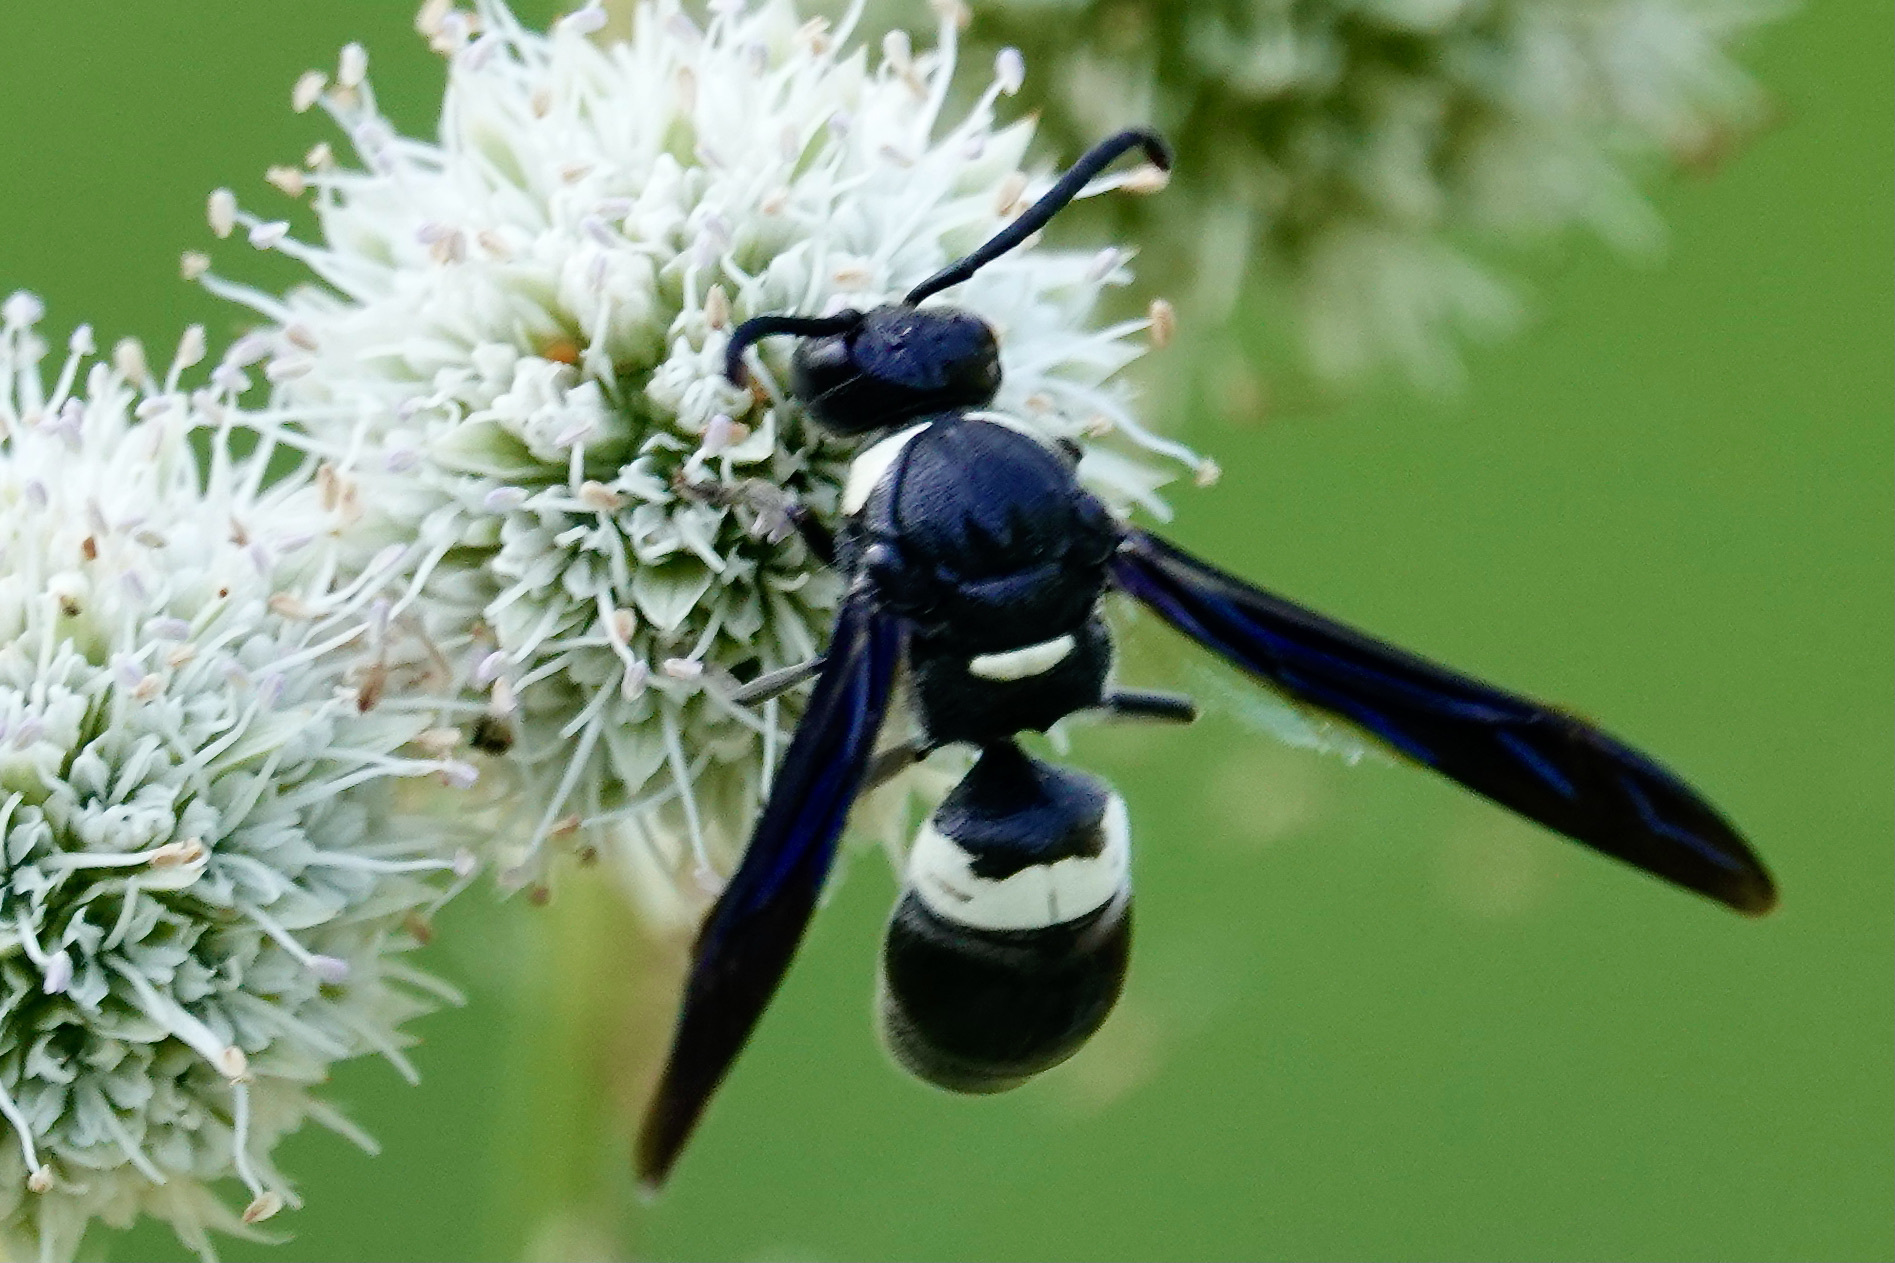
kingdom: Animalia
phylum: Arthropoda
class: Insecta
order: Hymenoptera
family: Eumenidae
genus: Monobia
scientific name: Monobia quadridens
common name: Four-toothed mason wasp
